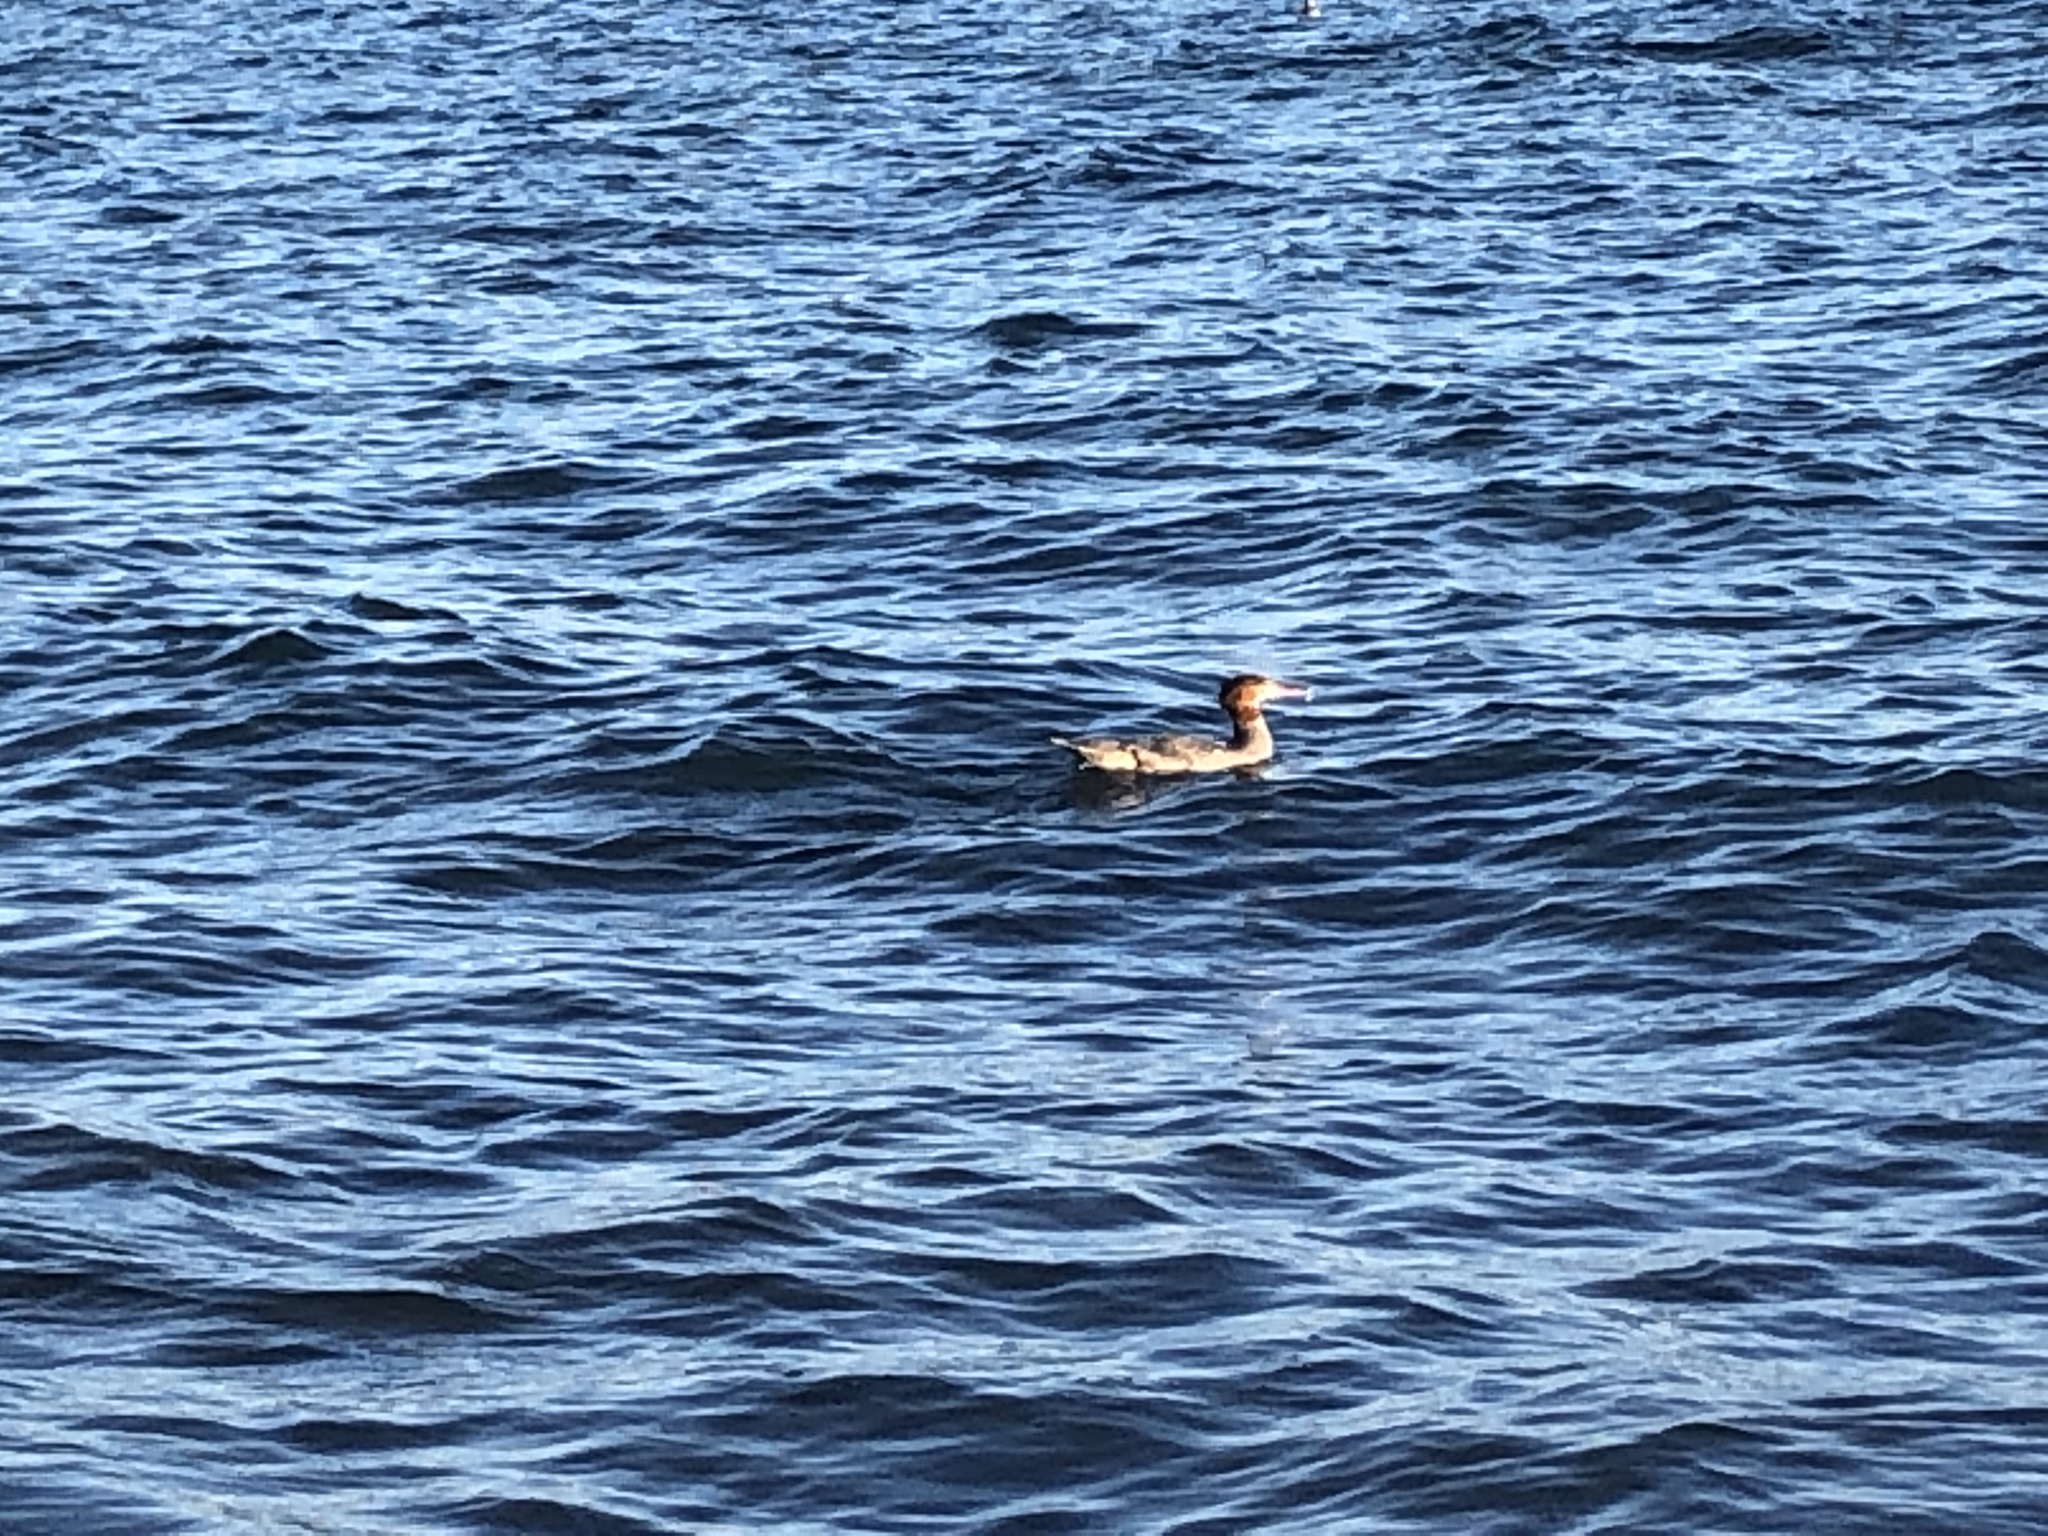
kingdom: Animalia
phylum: Chordata
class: Aves
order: Anseriformes
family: Anatidae
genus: Mergus
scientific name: Mergus merganser
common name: Common merganser
